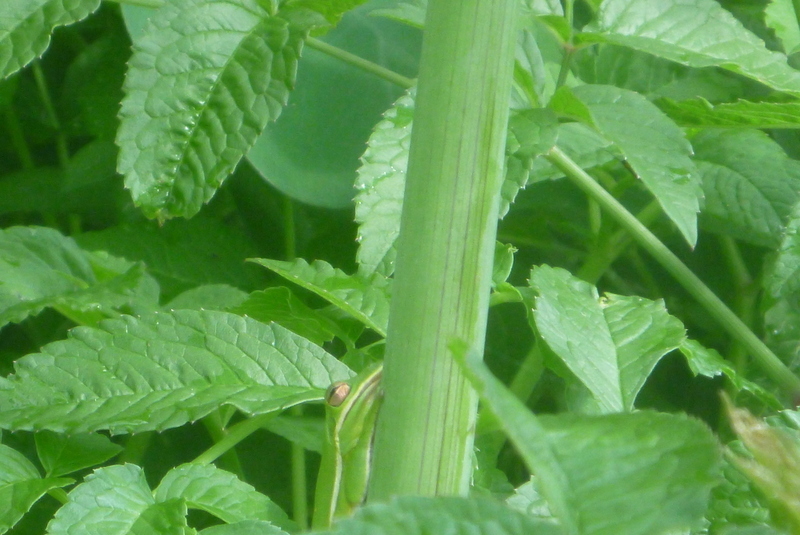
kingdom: Animalia
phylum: Chordata
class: Amphibia
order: Anura
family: Hylidae
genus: Dryophytes
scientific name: Dryophytes cinereus
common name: Green treefrog
